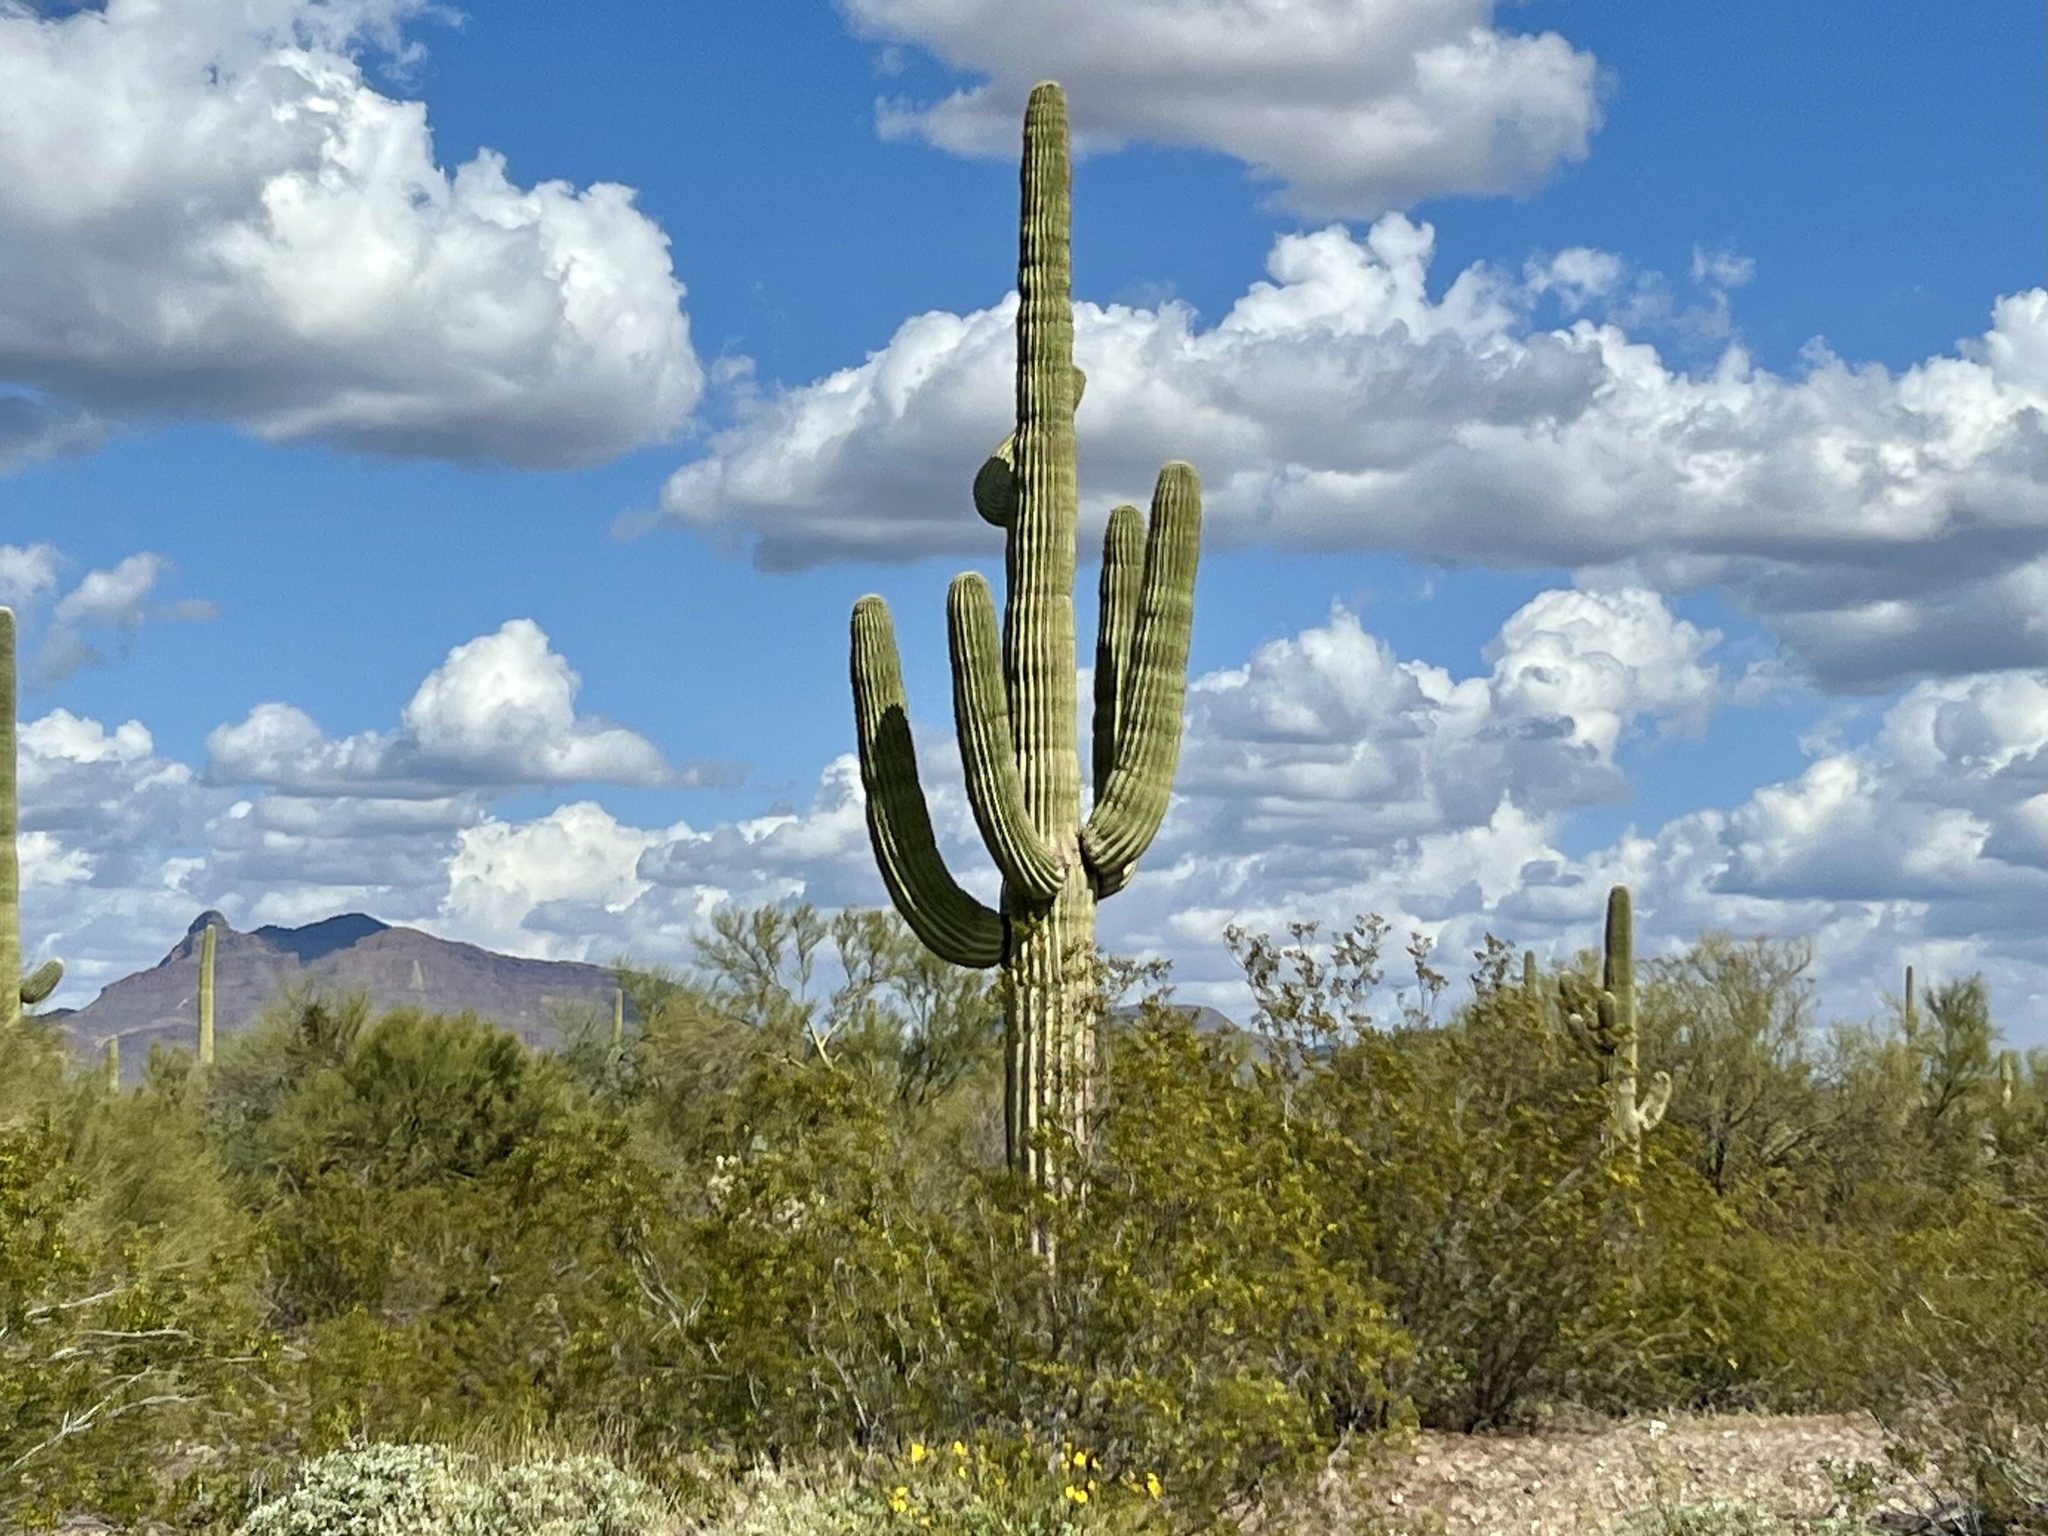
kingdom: Plantae
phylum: Tracheophyta
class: Magnoliopsida
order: Caryophyllales
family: Cactaceae
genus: Carnegiea
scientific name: Carnegiea gigantea
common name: Saguaro
